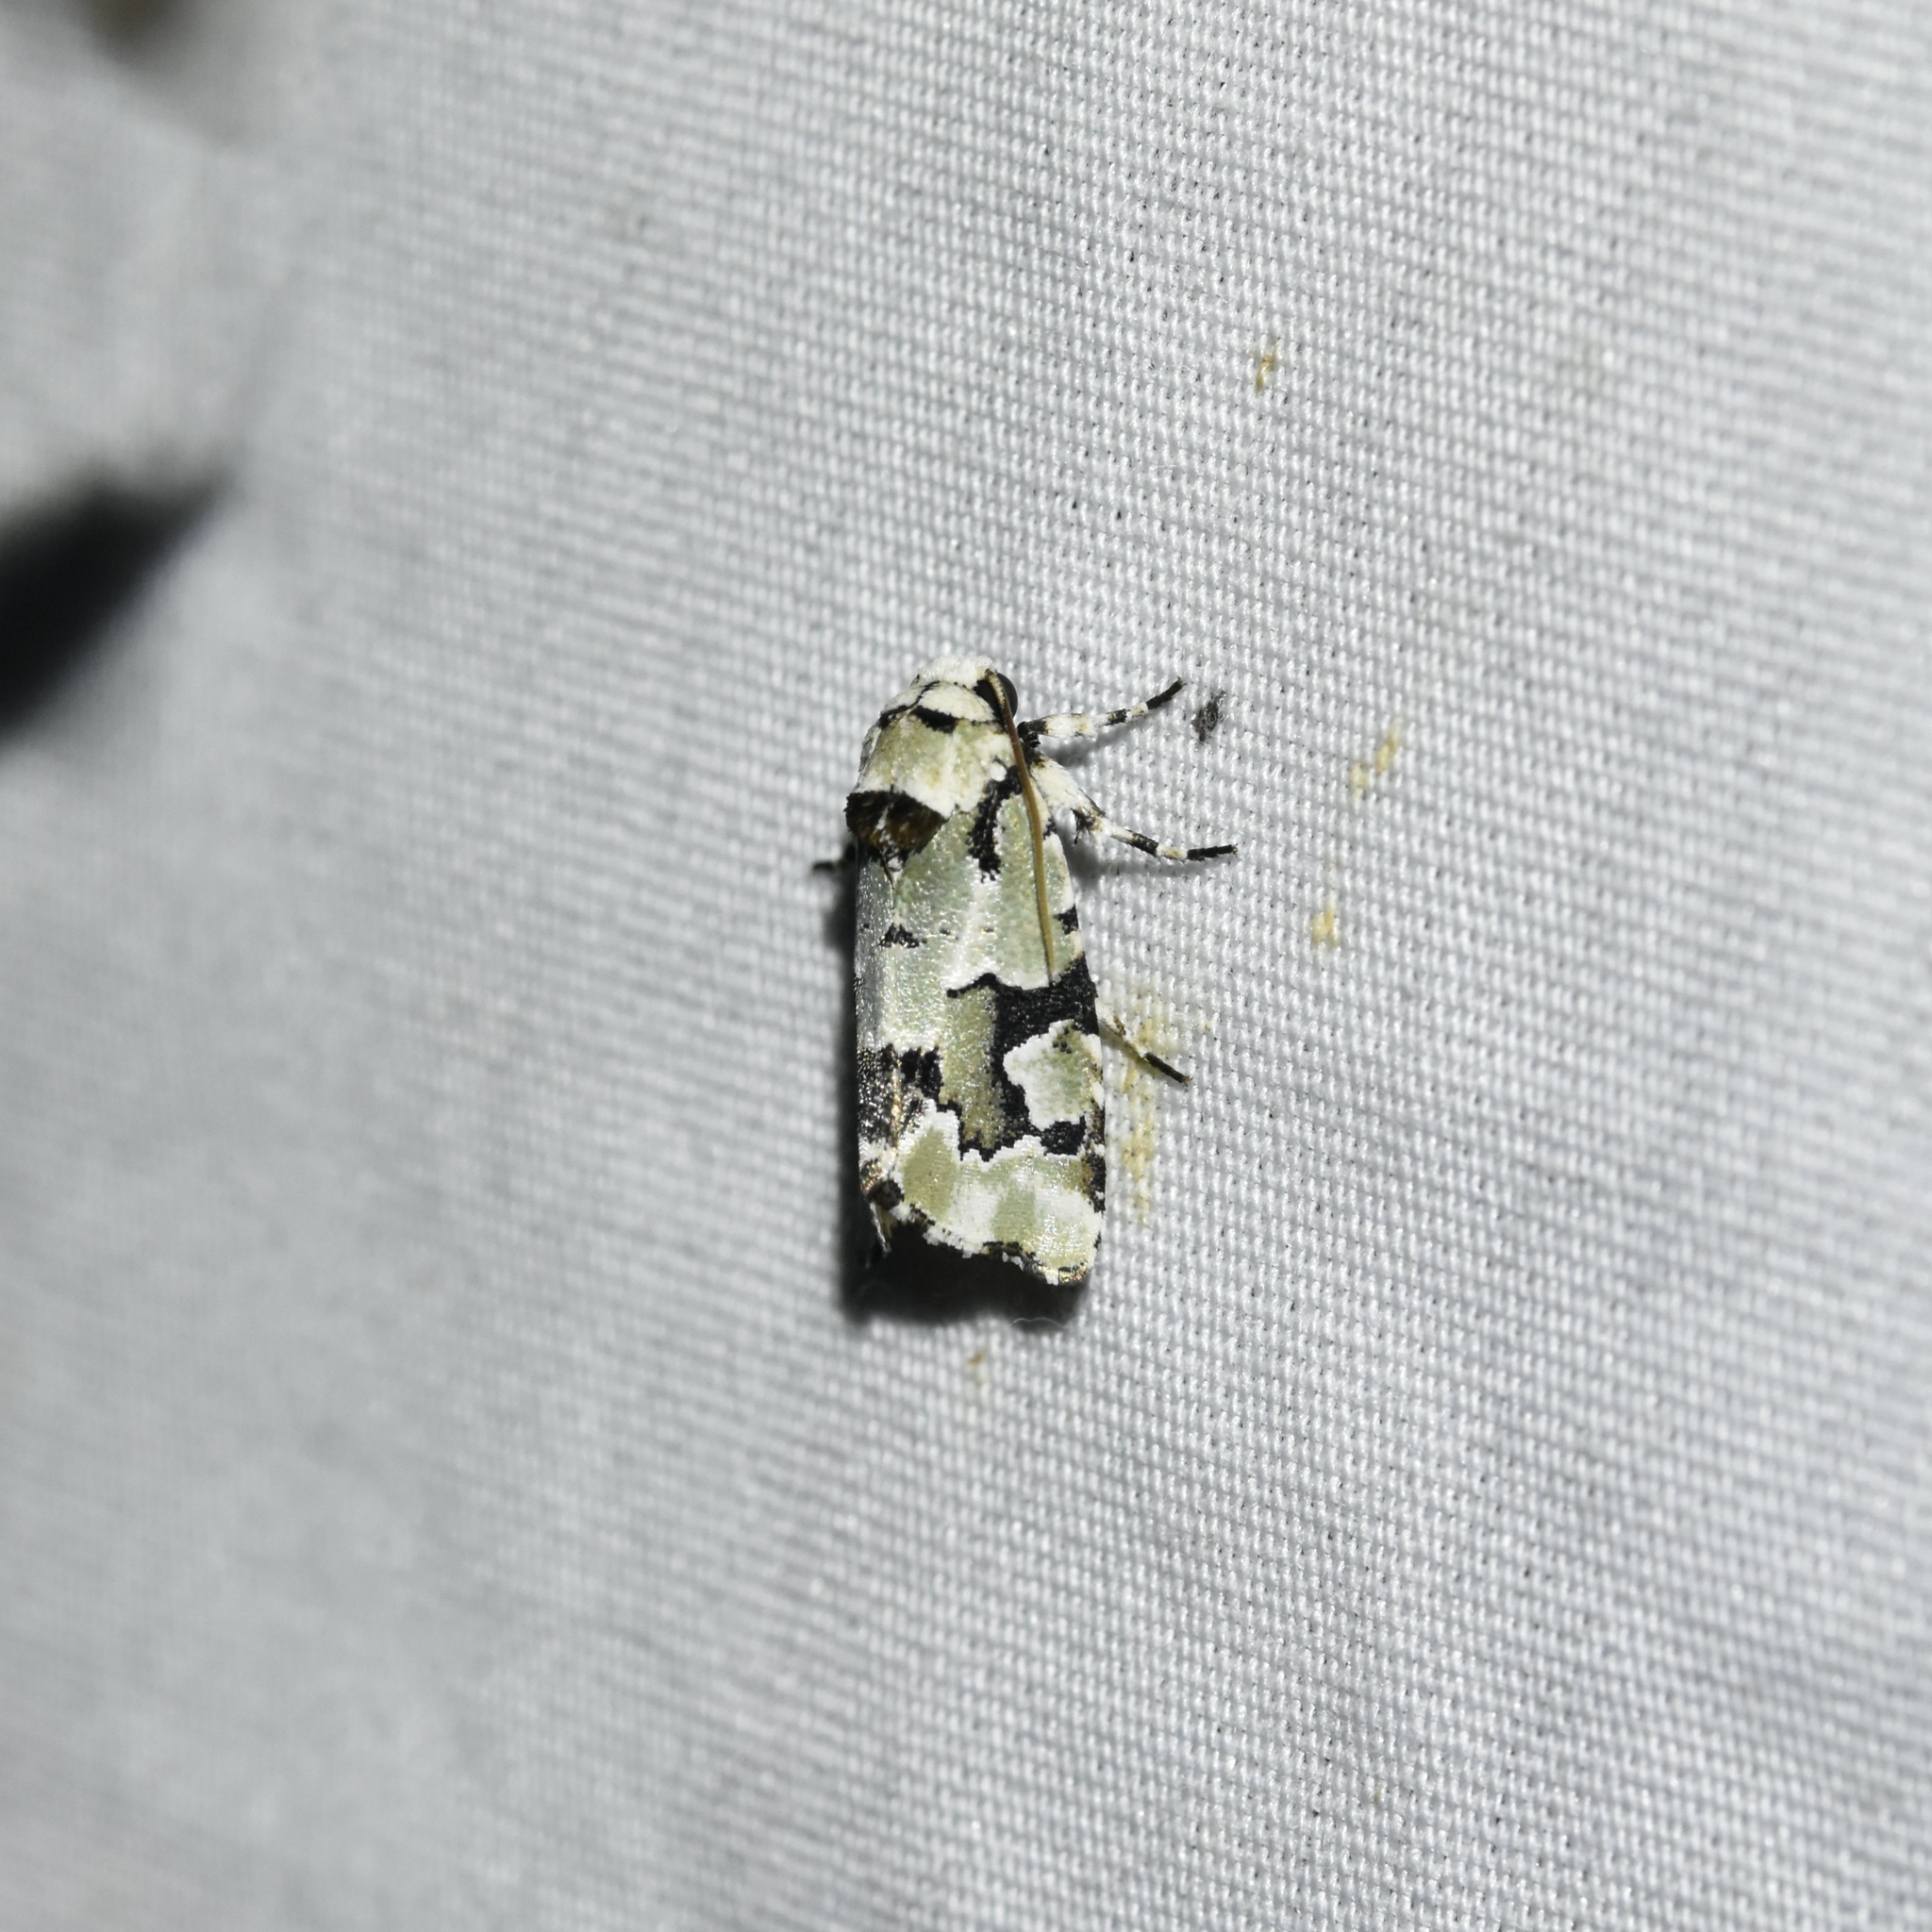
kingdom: Animalia
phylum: Arthropoda
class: Insecta
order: Lepidoptera
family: Noctuidae
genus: Emarginea
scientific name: Emarginea percara
